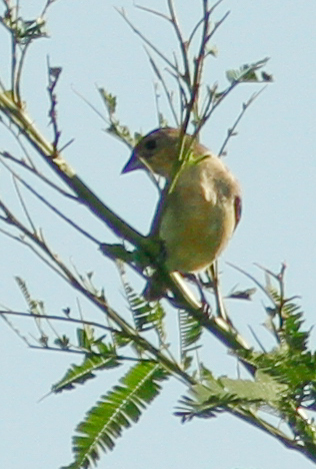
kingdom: Animalia
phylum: Chordata
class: Aves
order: Passeriformes
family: Thraupidae
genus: Rhodospingus
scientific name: Rhodospingus cruentus
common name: Crimson-breasted finch
